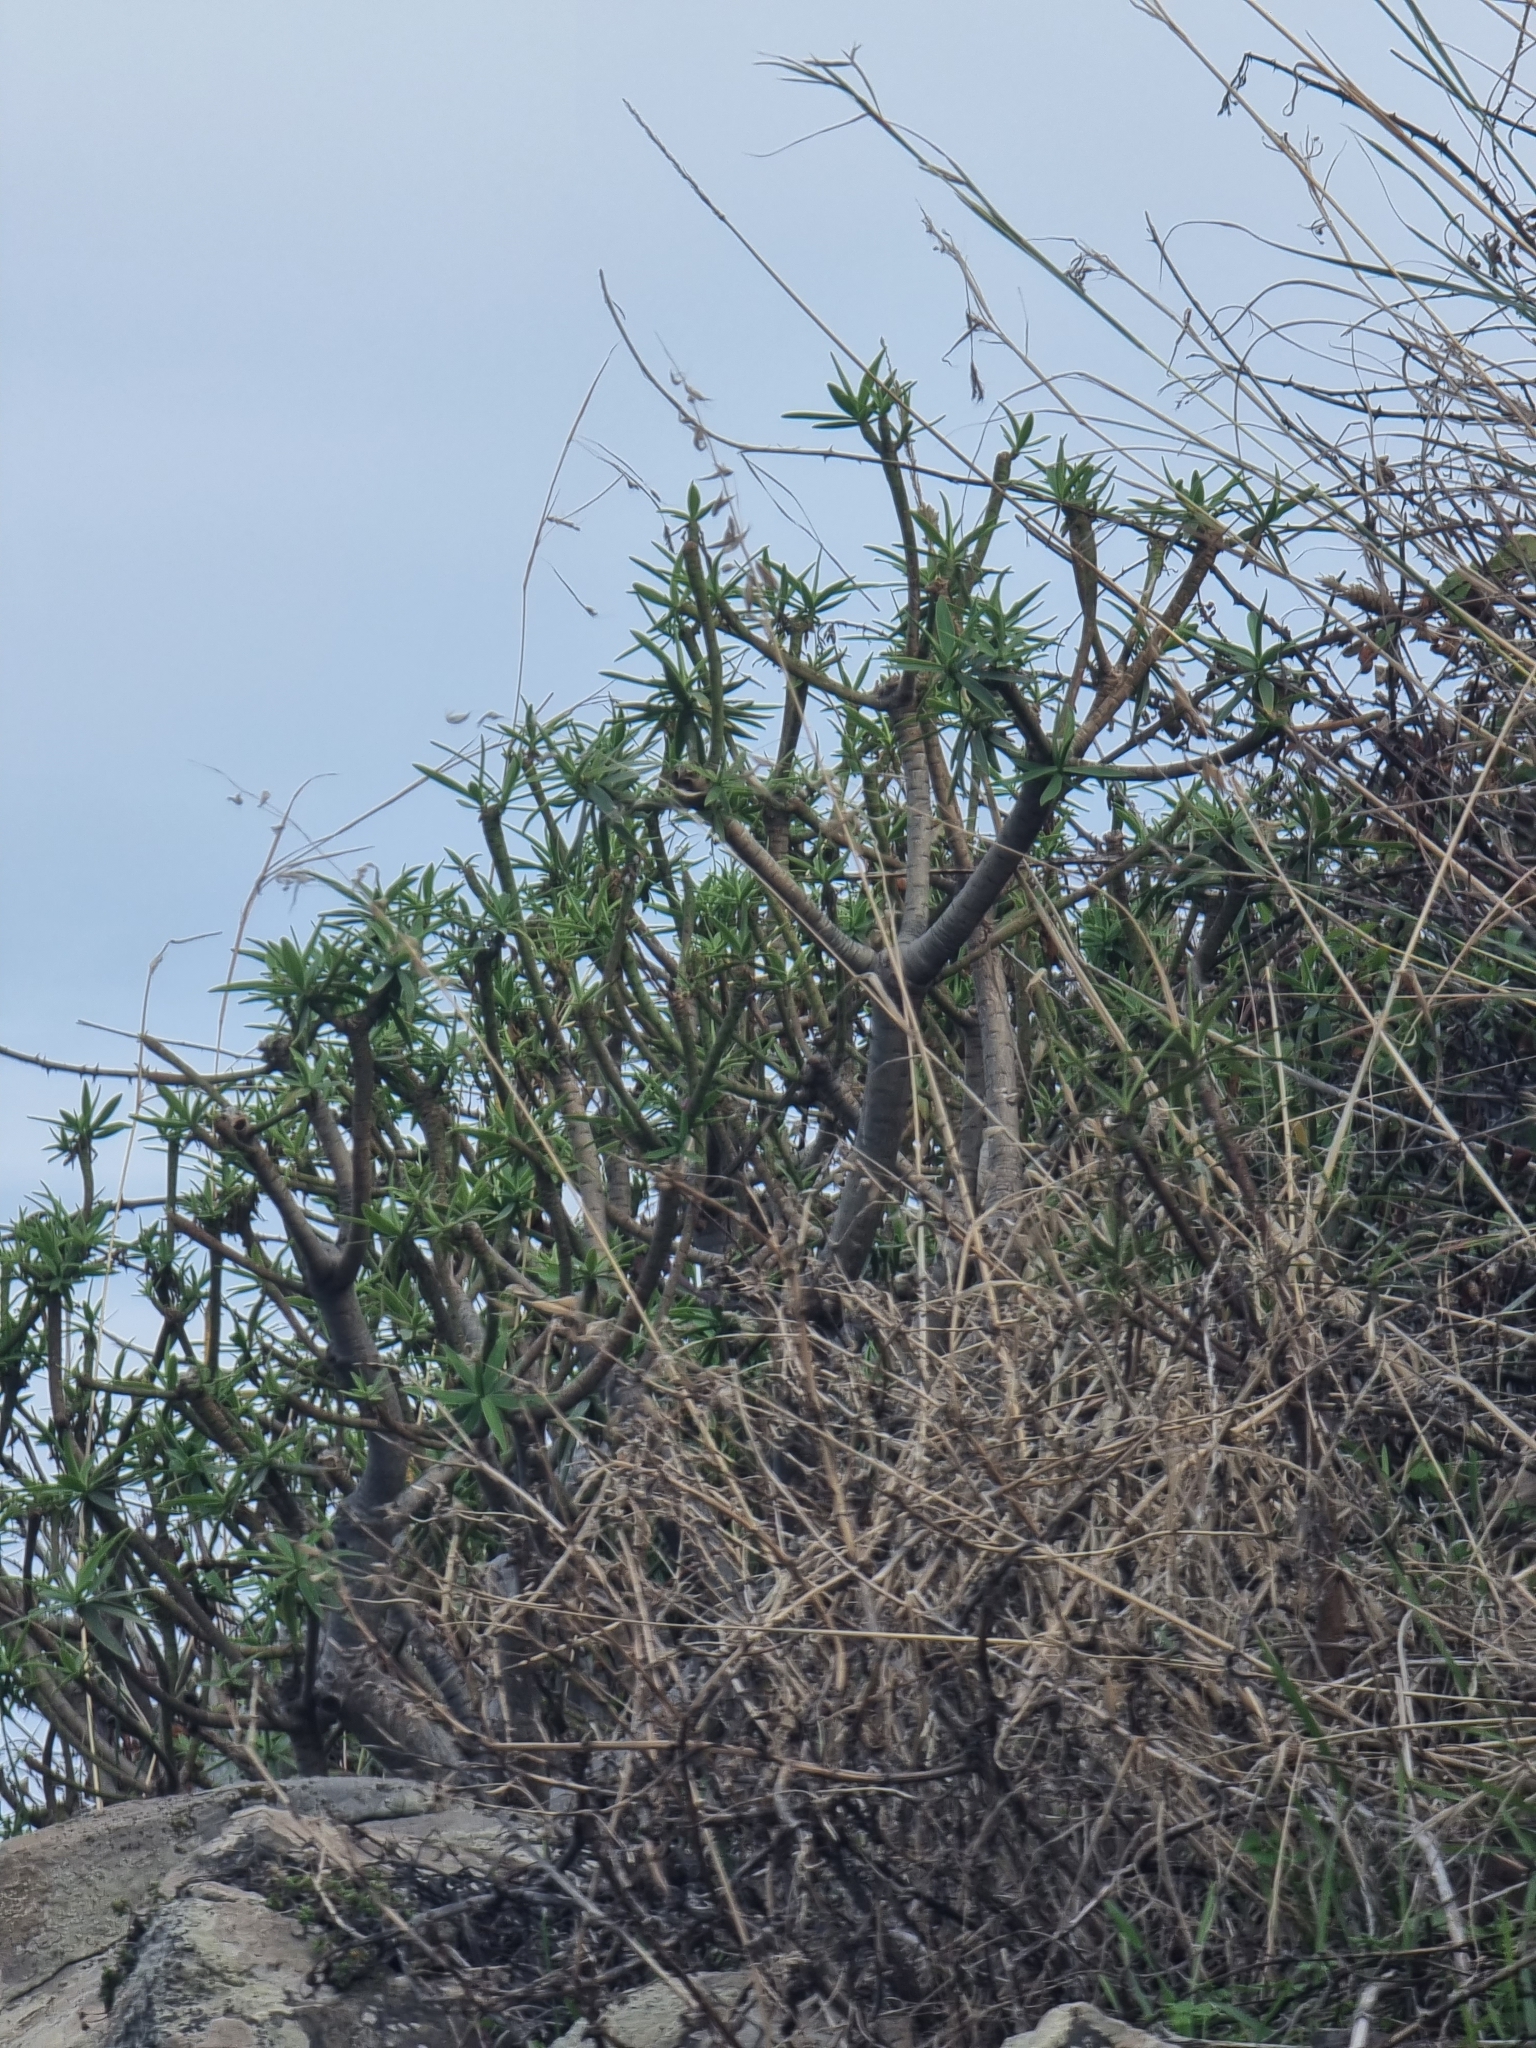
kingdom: Plantae
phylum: Tracheophyta
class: Magnoliopsida
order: Malpighiales
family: Euphorbiaceae
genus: Euphorbia
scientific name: Euphorbia piscatoria
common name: Fish-stunning spurge
